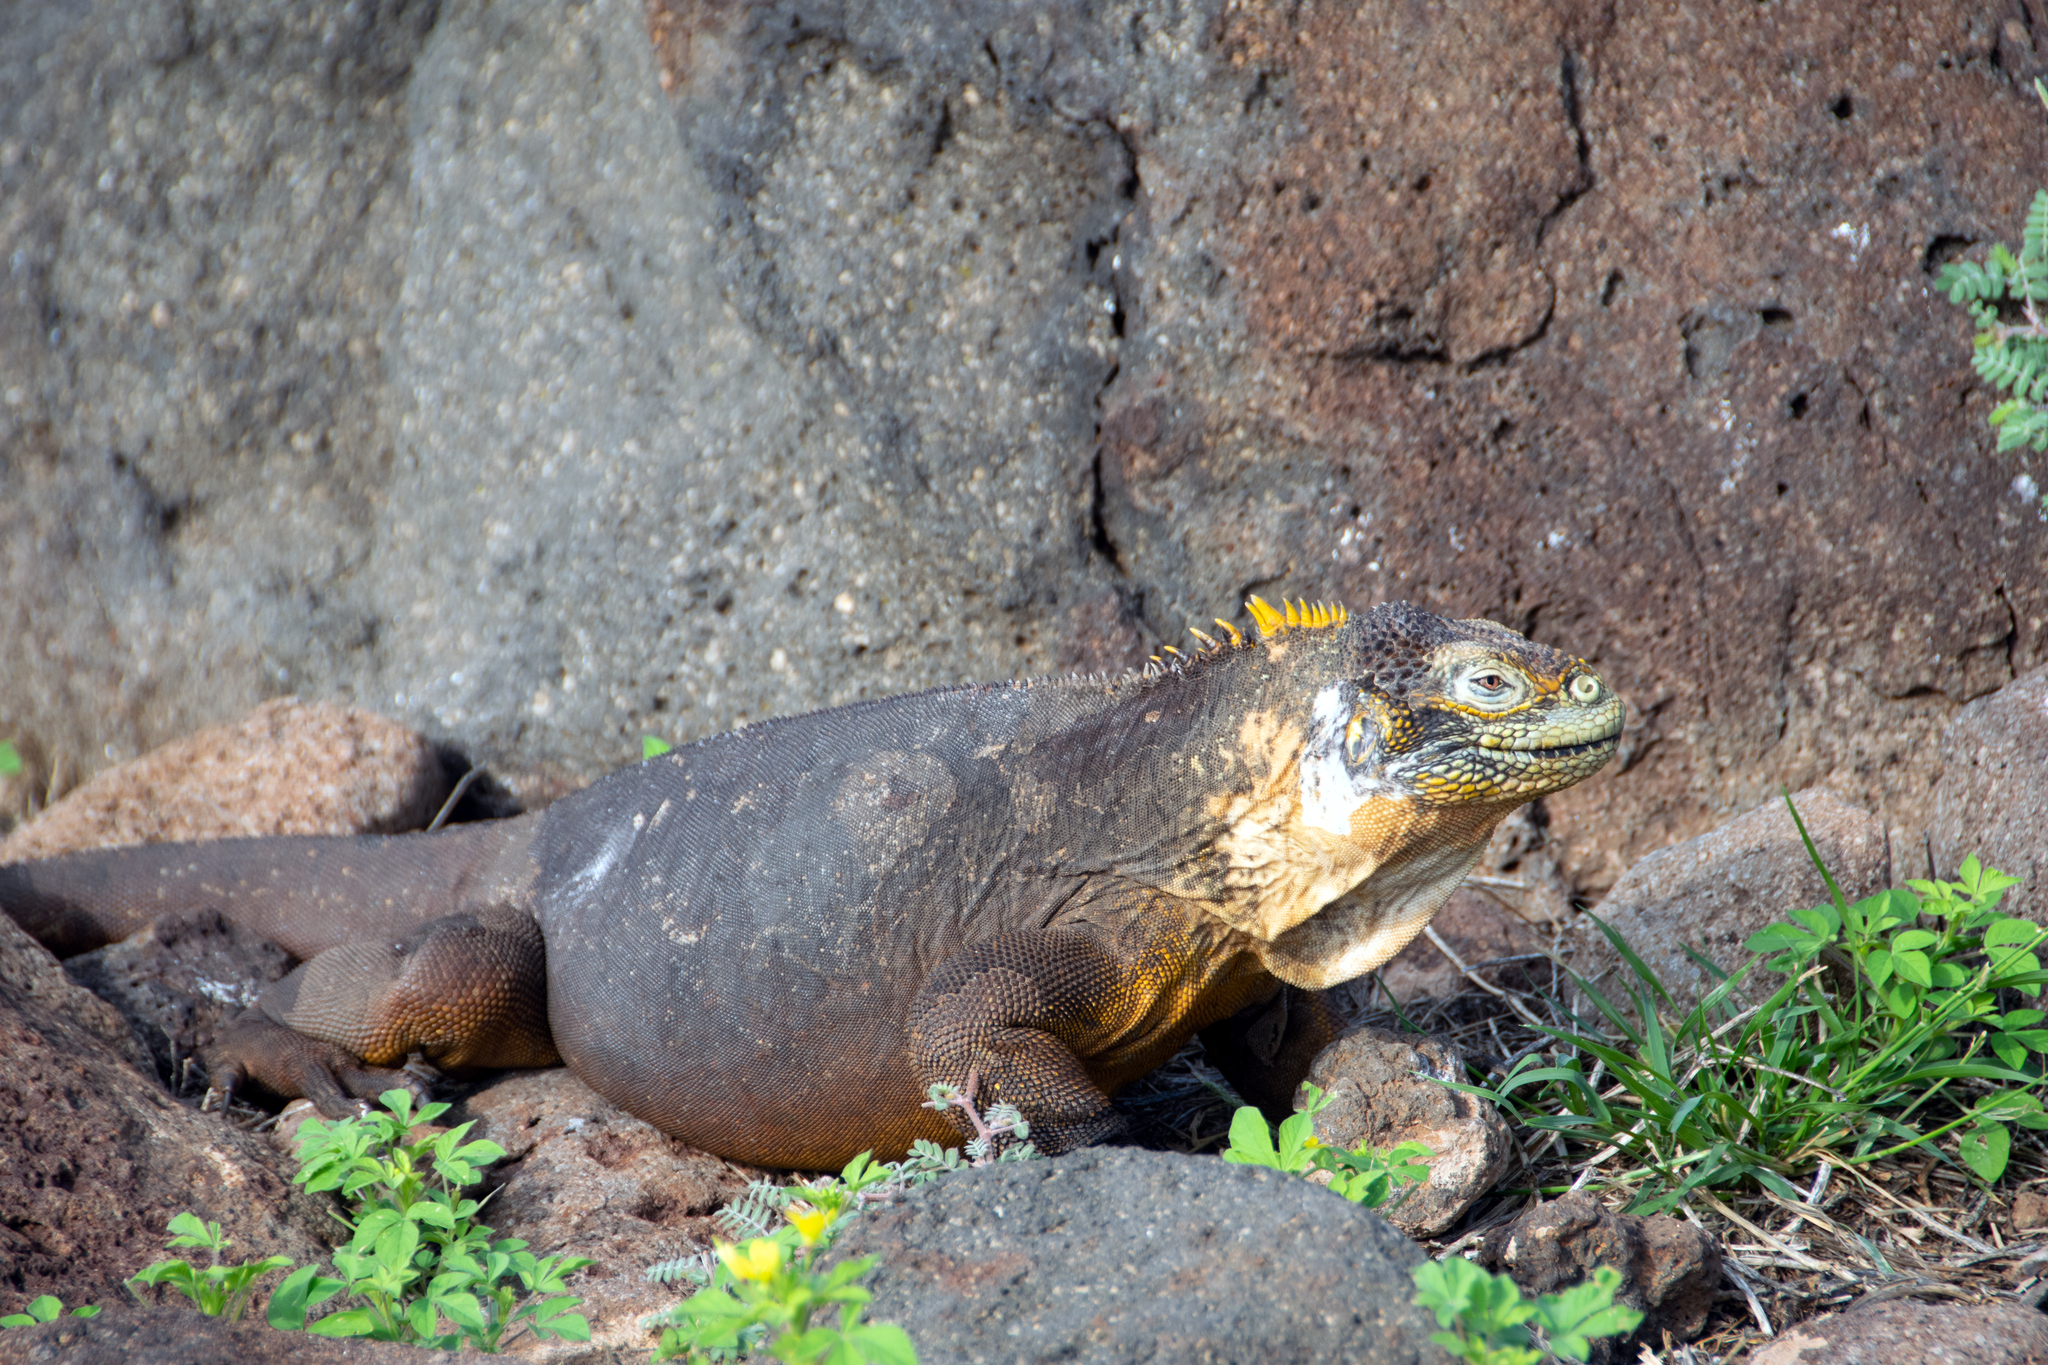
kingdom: Animalia
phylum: Chordata
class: Squamata
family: Iguanidae
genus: Conolophus
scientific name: Conolophus subcristatus
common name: Galapagos land iguana
